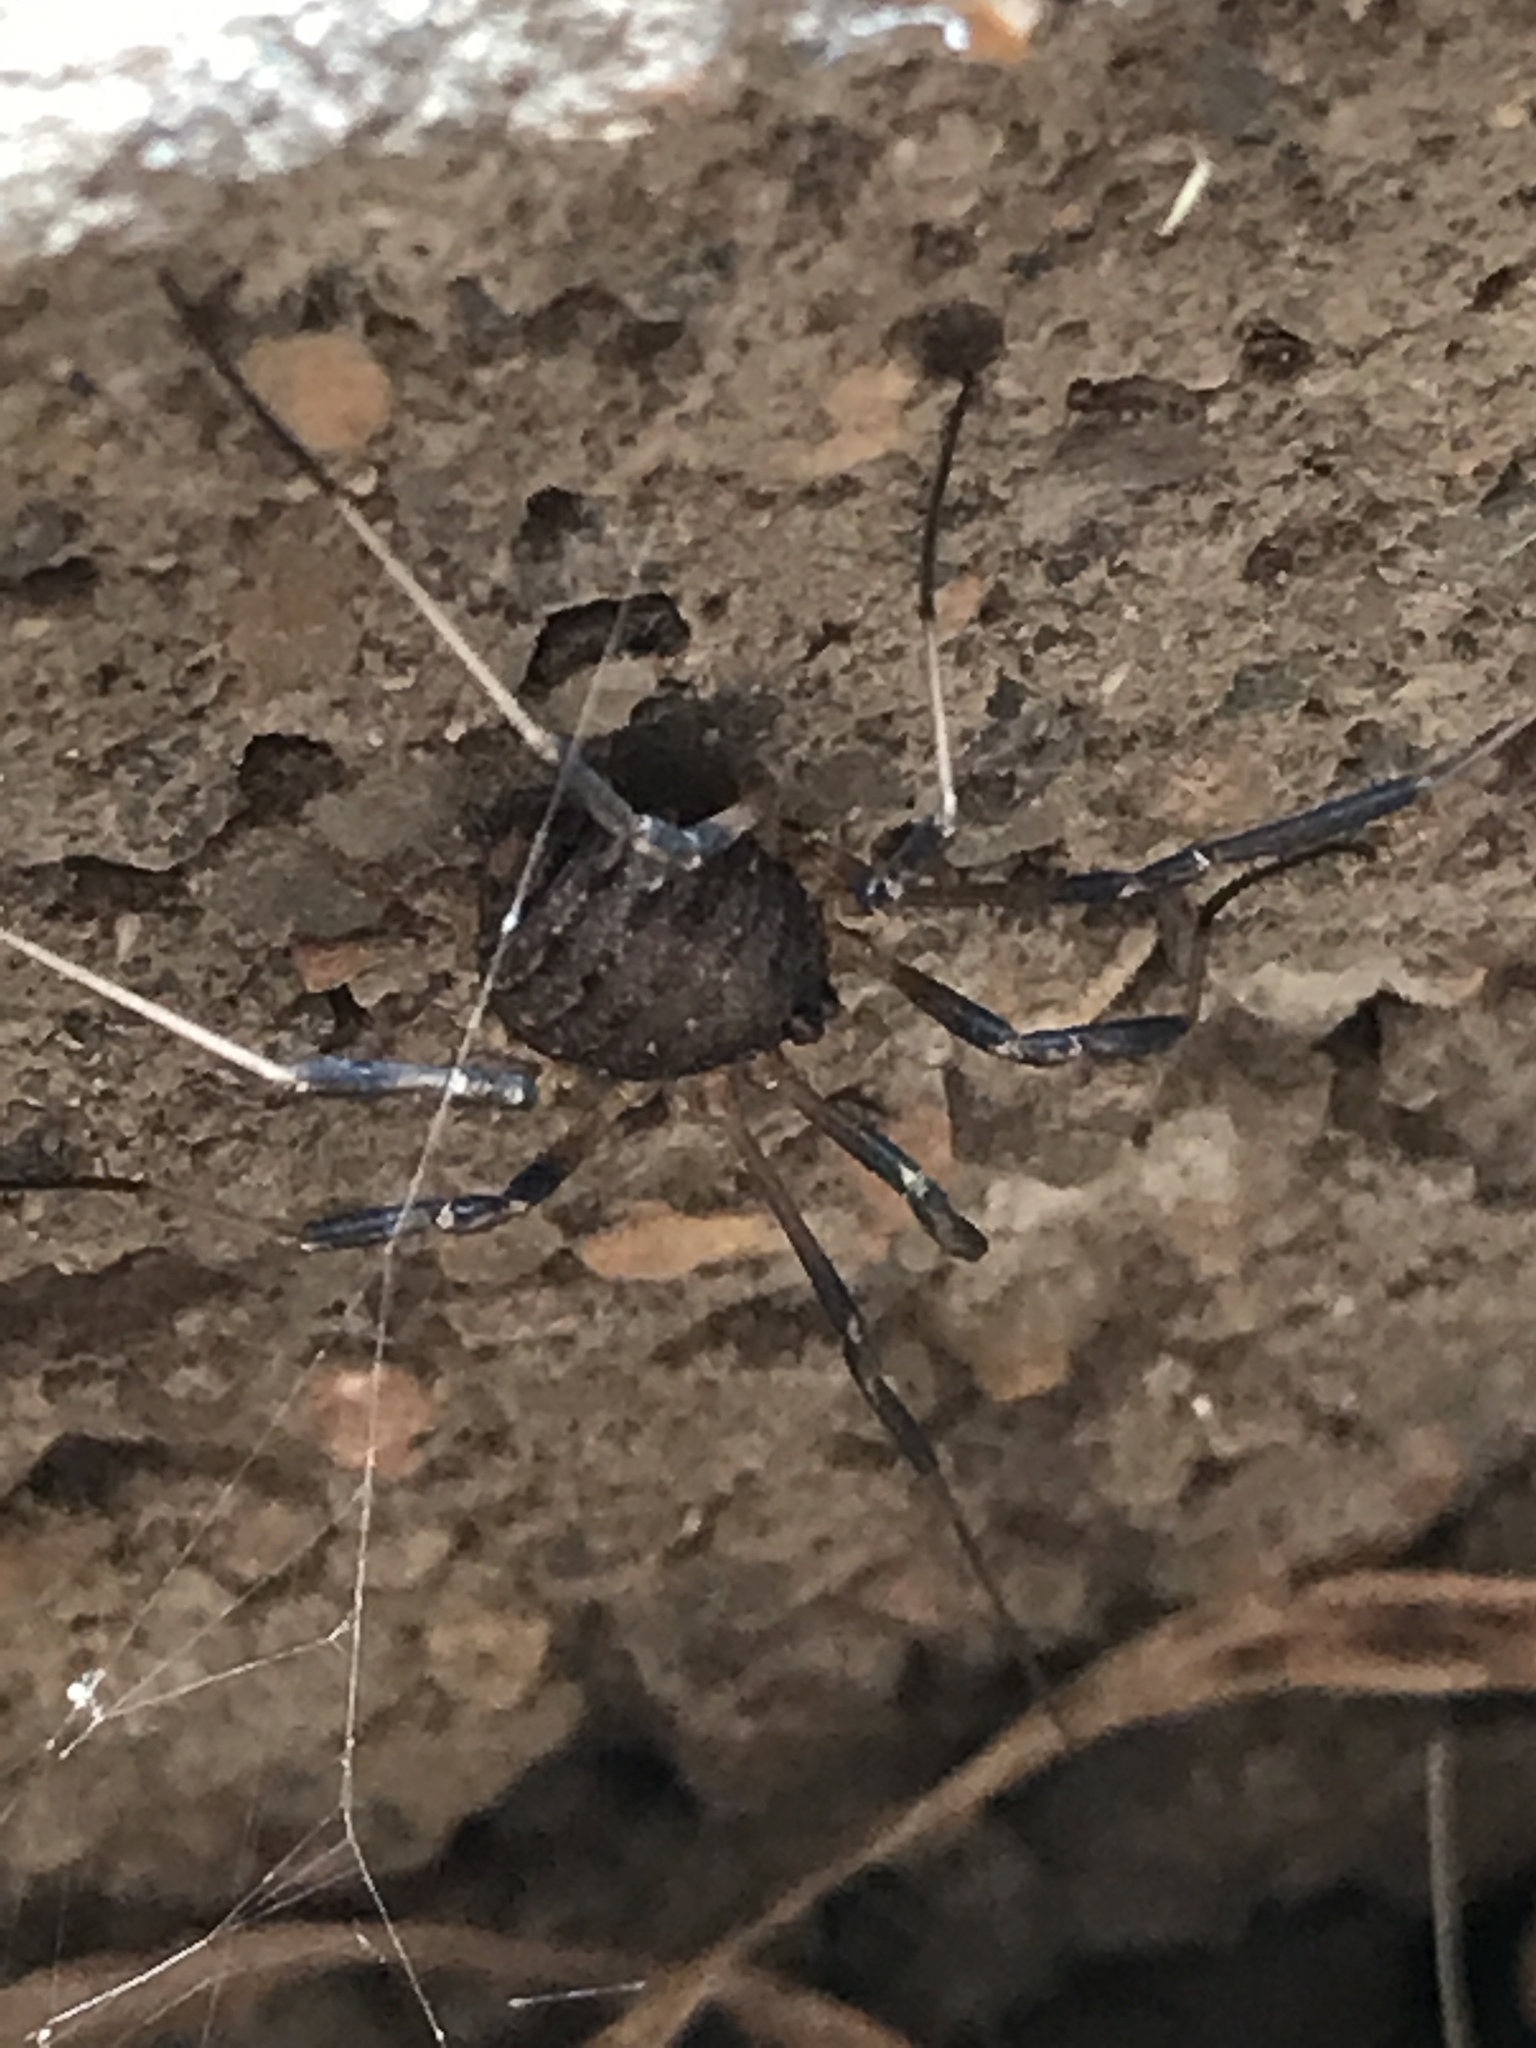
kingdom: Animalia
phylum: Arthropoda
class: Arachnida
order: Opiliones
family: Sclerosomatidae
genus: Eumesosoma
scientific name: Eumesosoma roeweri
